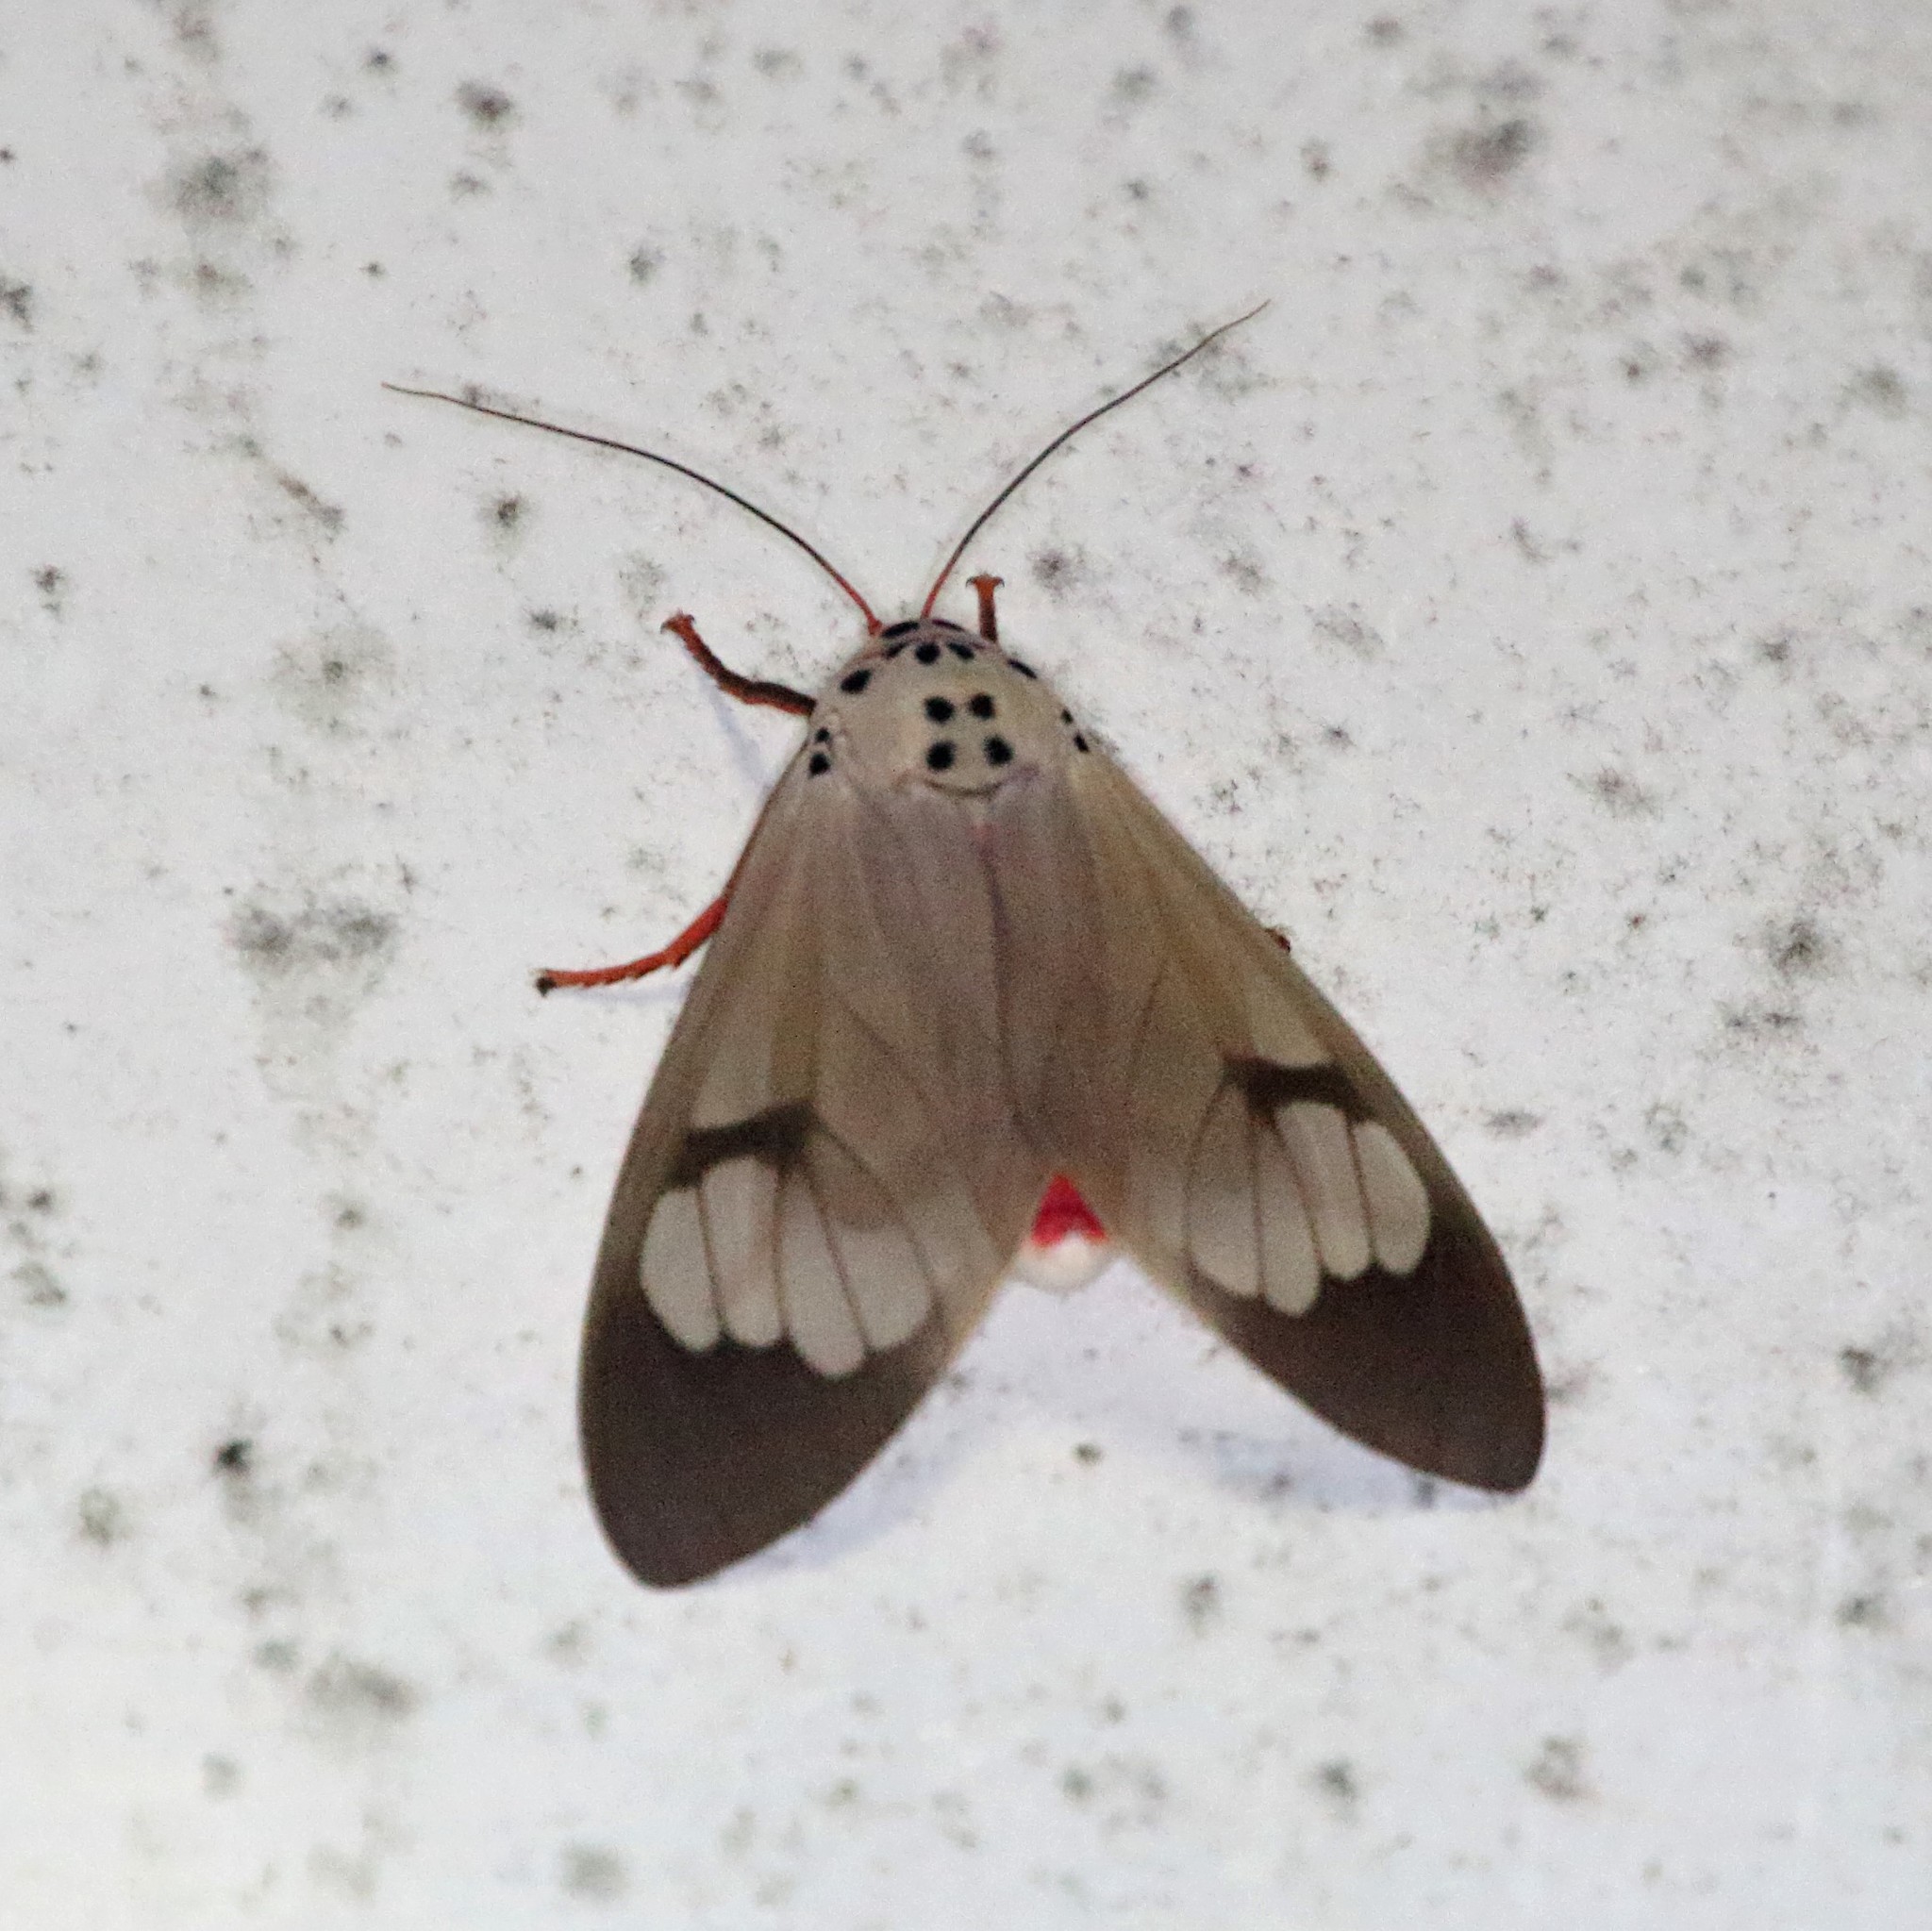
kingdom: Animalia
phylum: Arthropoda
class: Insecta
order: Lepidoptera
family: Erebidae
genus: Amerila
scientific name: Amerila astreus
